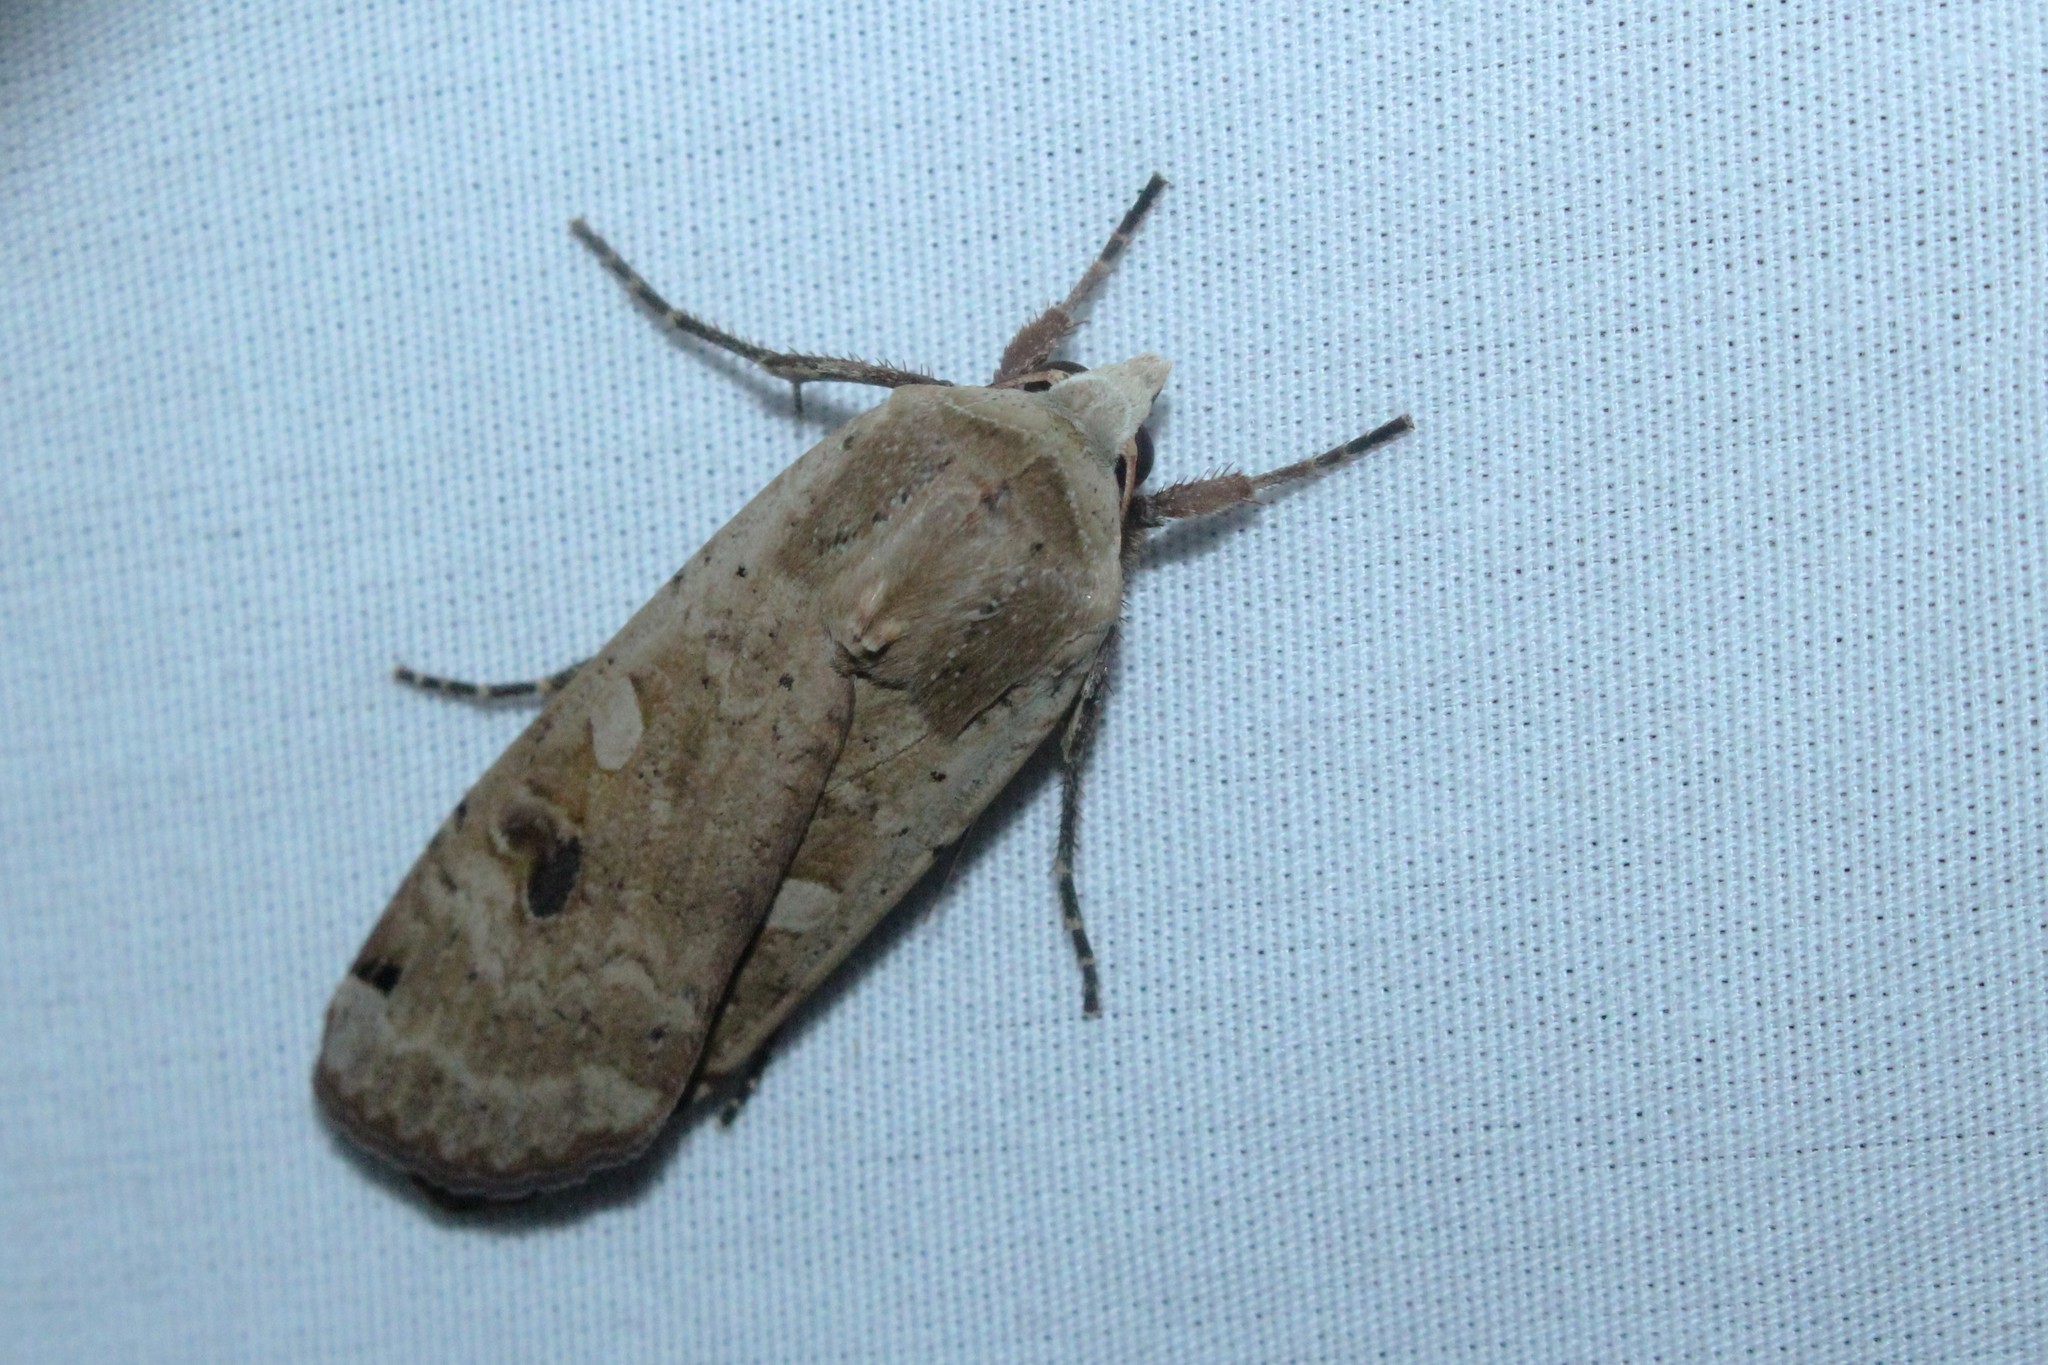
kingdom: Animalia
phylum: Arthropoda
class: Insecta
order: Lepidoptera
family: Noctuidae
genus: Noctua
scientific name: Noctua pronuba
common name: Large yellow underwing
